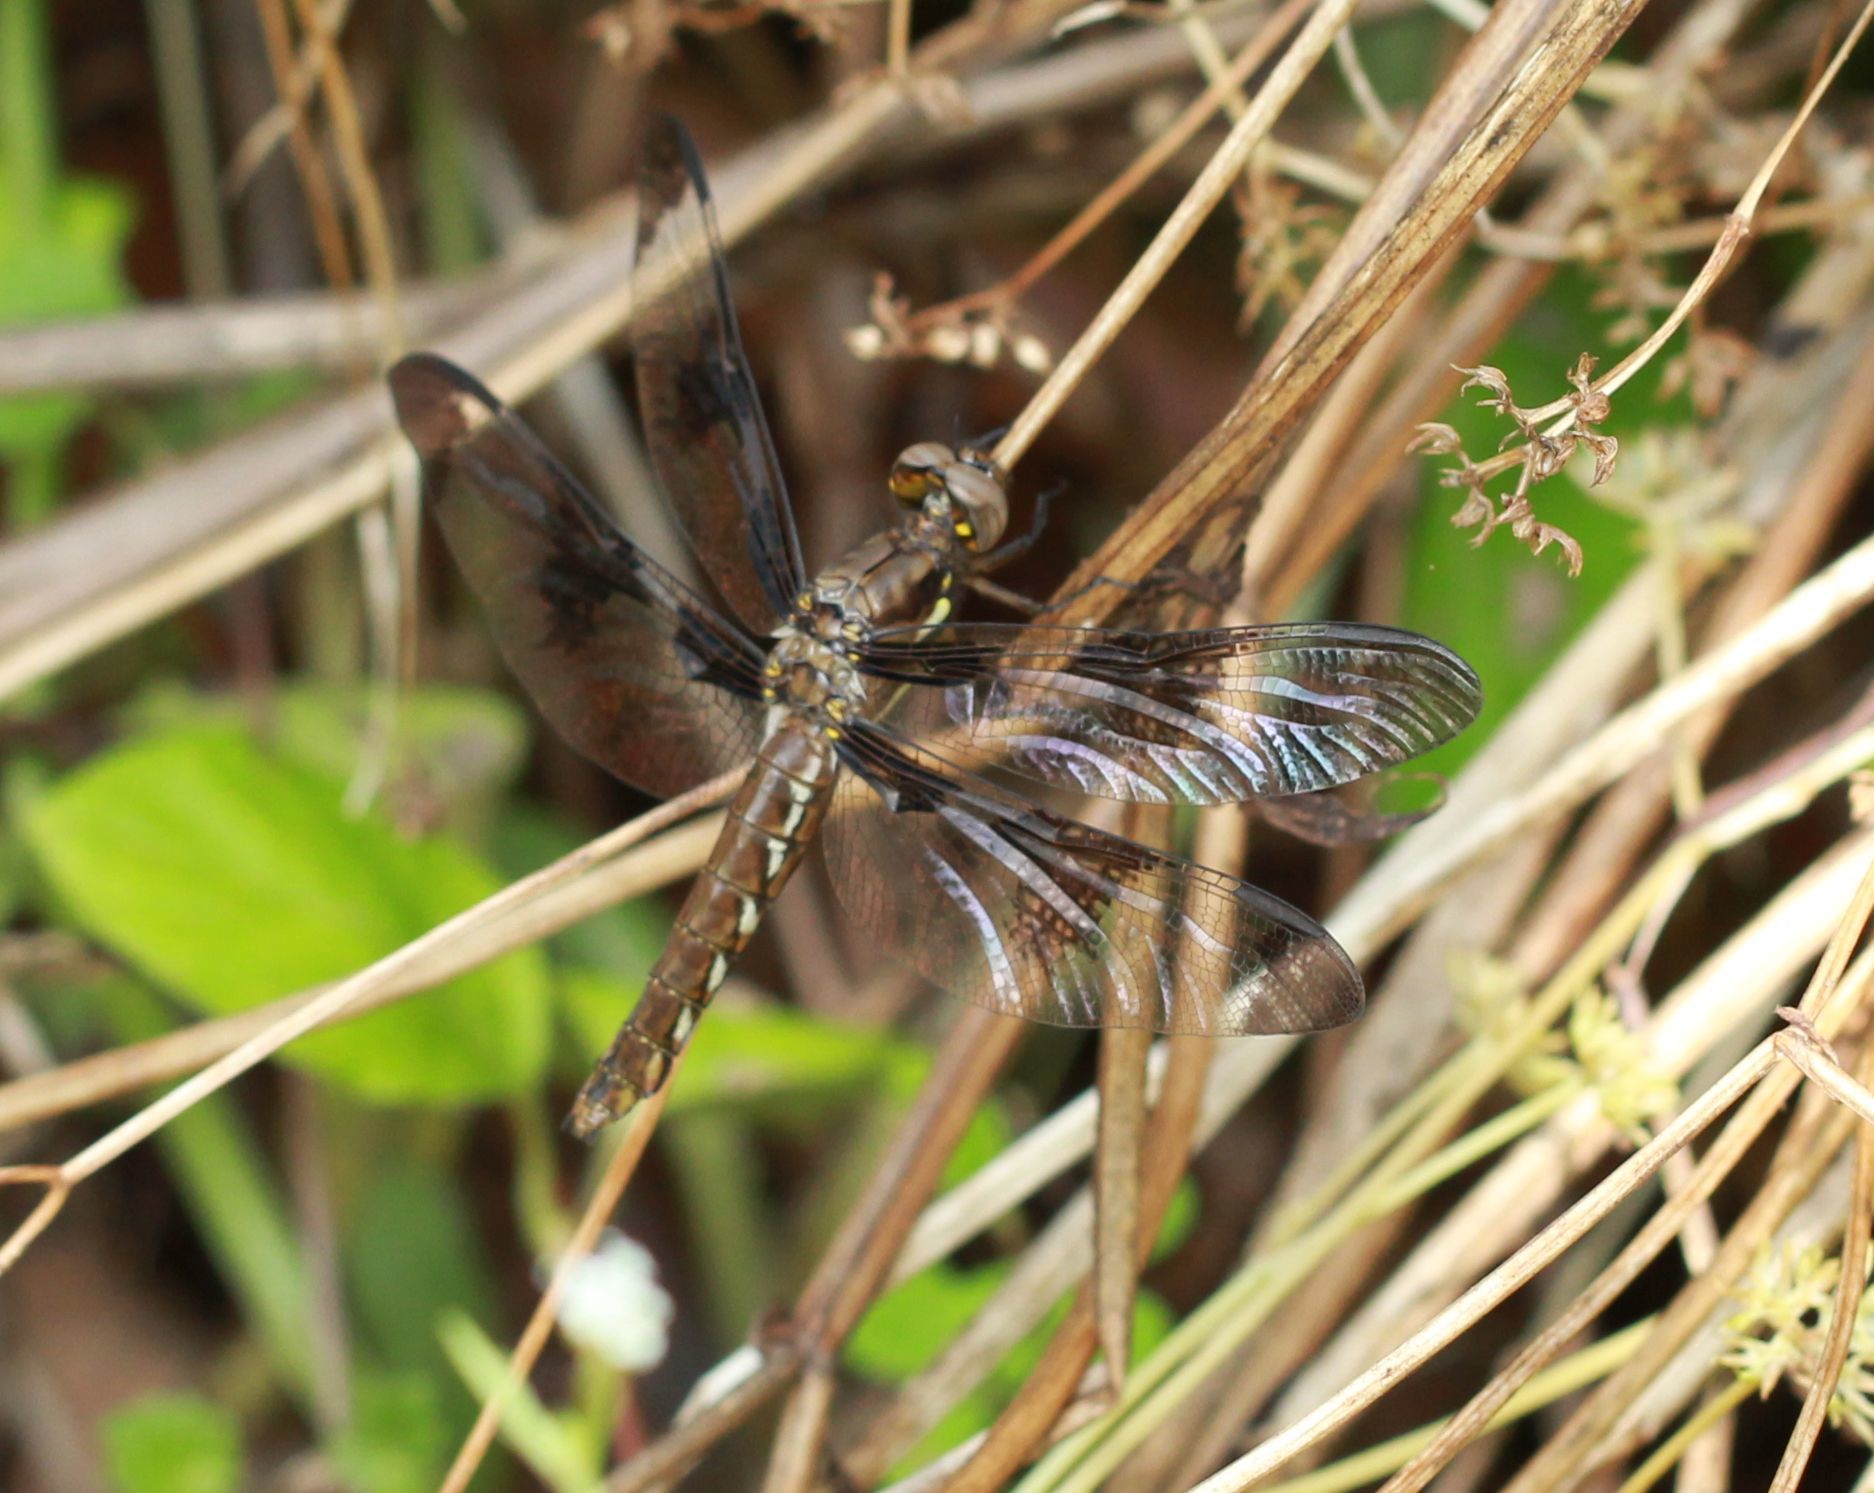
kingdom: Animalia
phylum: Arthropoda
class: Insecta
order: Odonata
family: Libellulidae
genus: Plathemis
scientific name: Plathemis lydia
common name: Common whitetail
